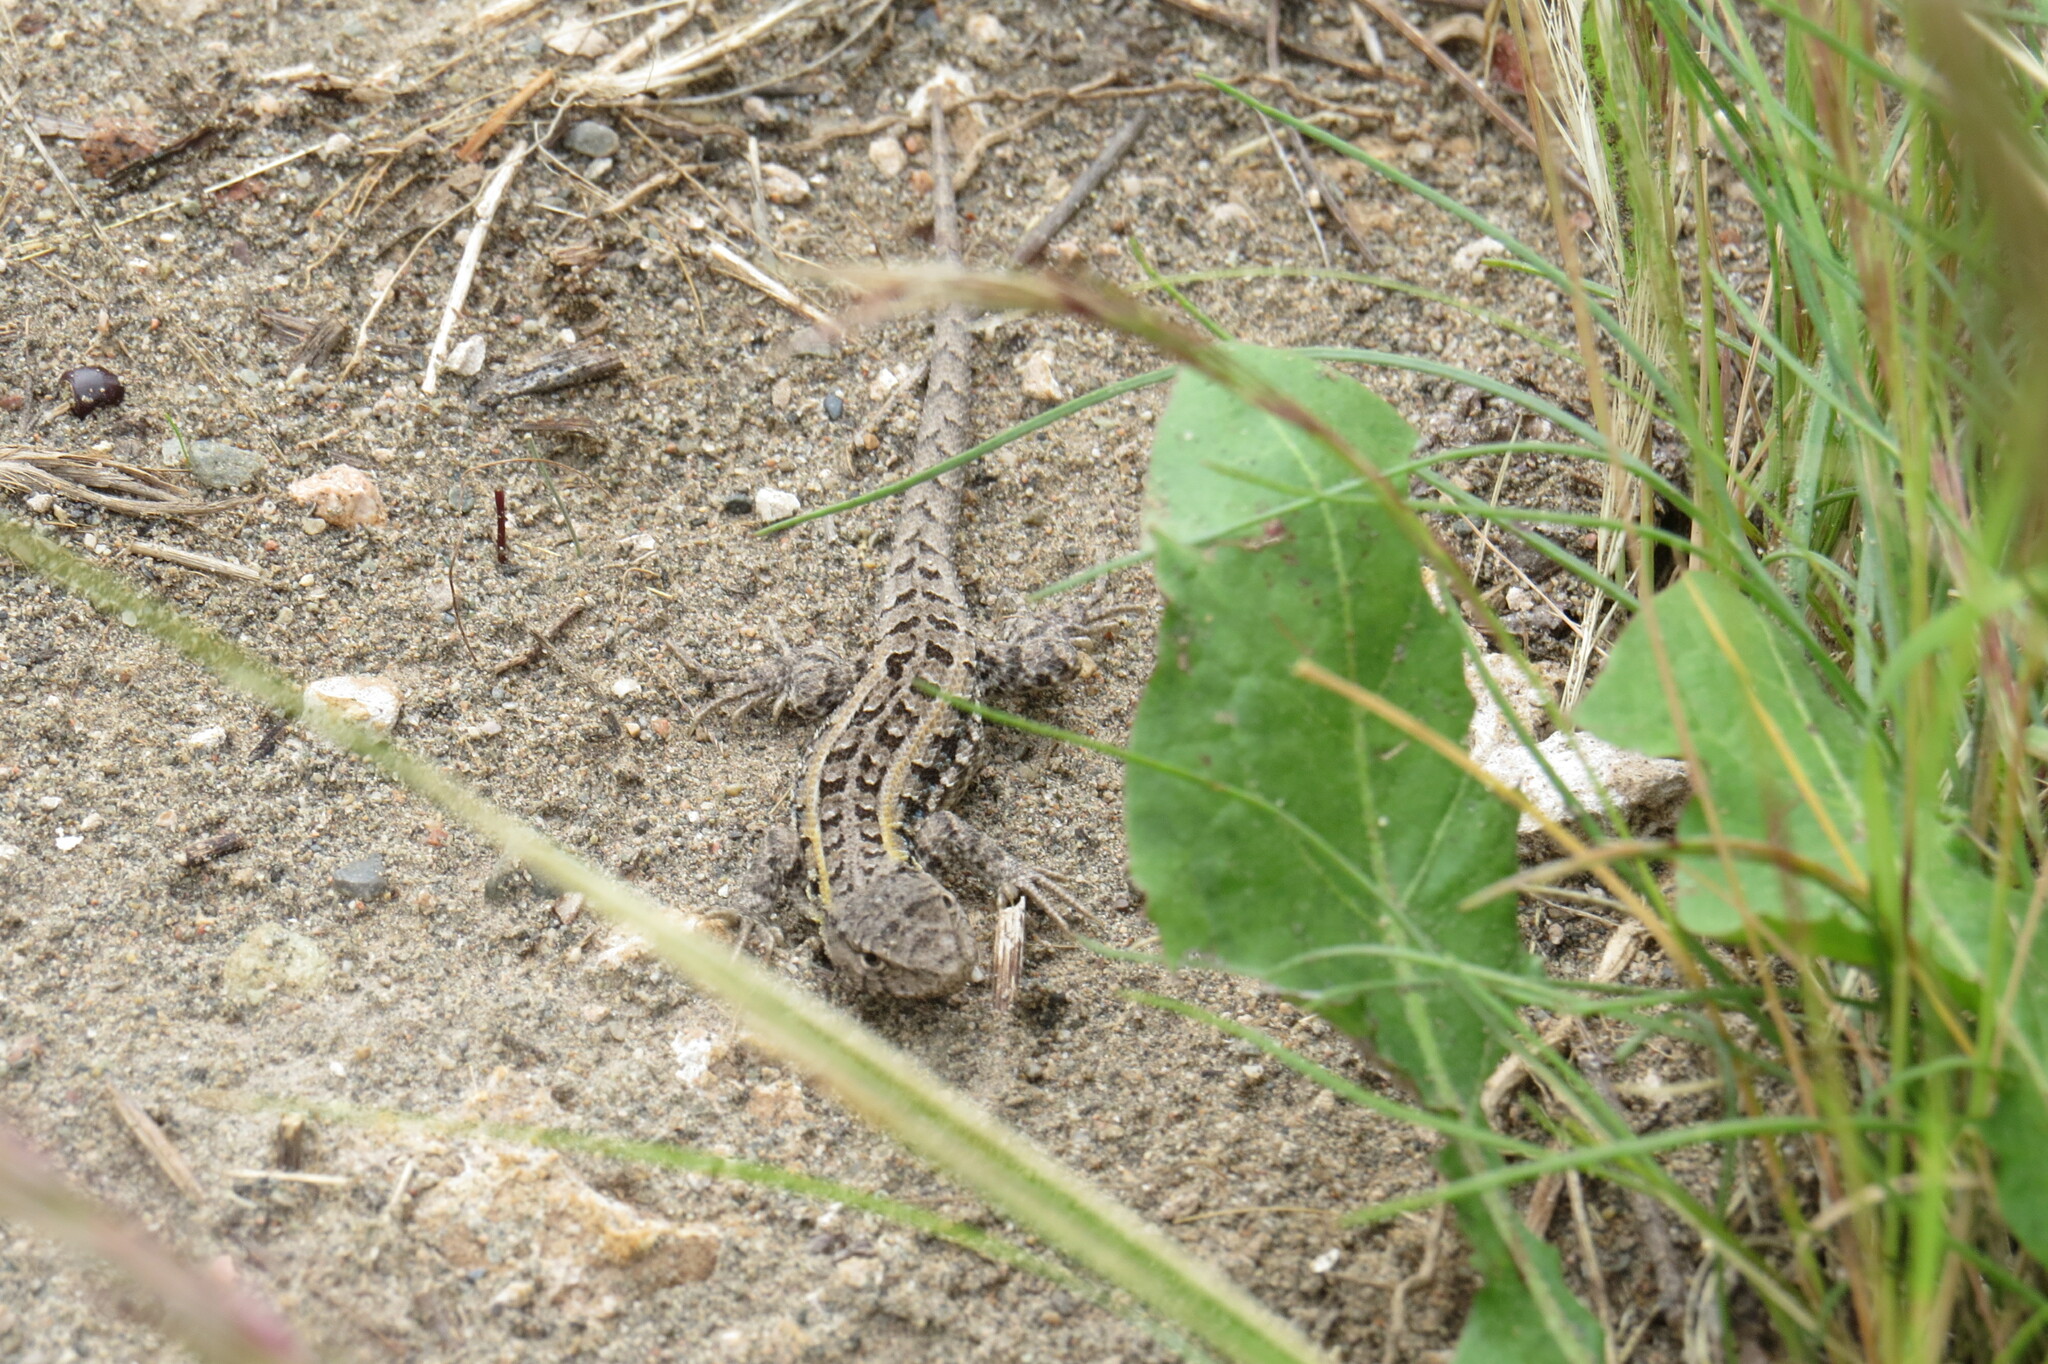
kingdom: Animalia
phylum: Chordata
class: Squamata
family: Liolaemidae
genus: Liolaemus
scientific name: Liolaemus wiegmannii
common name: Wiegmann's tree iguana
